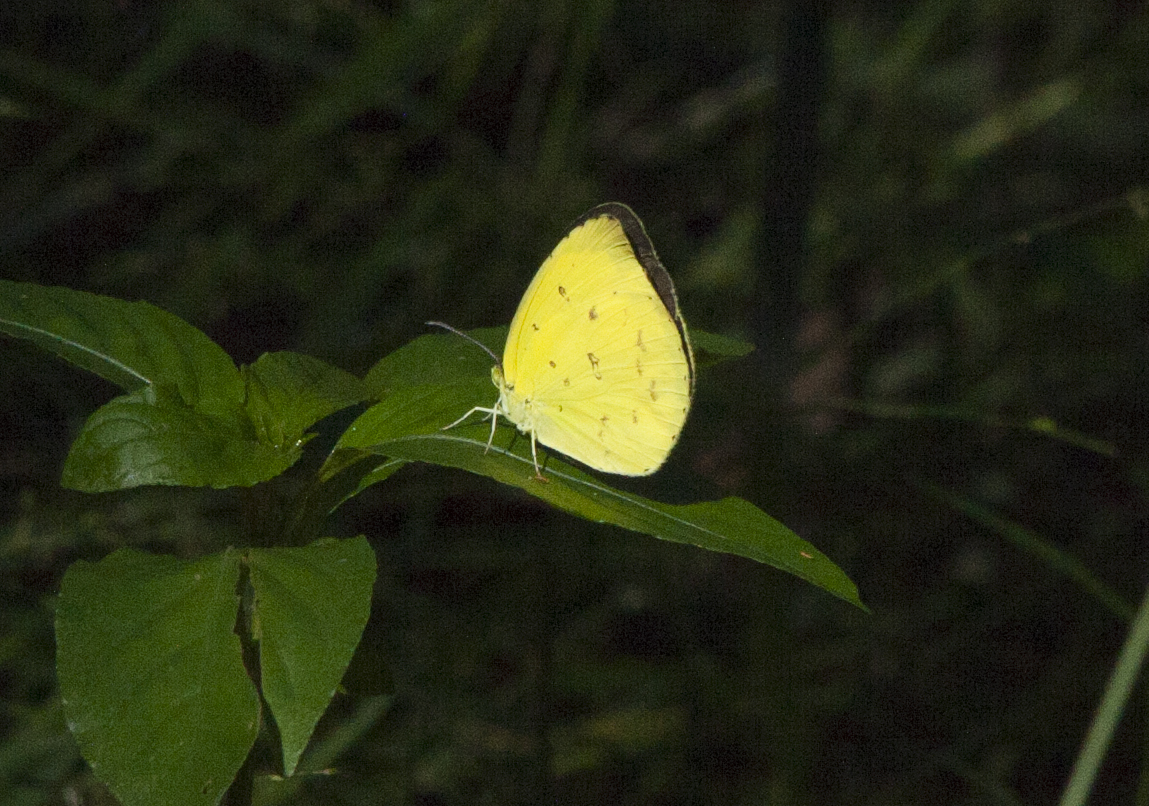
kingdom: Animalia
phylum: Arthropoda
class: Insecta
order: Lepidoptera
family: Pieridae
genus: Eurema
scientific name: Eurema hecabe
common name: Pale grass yellow
